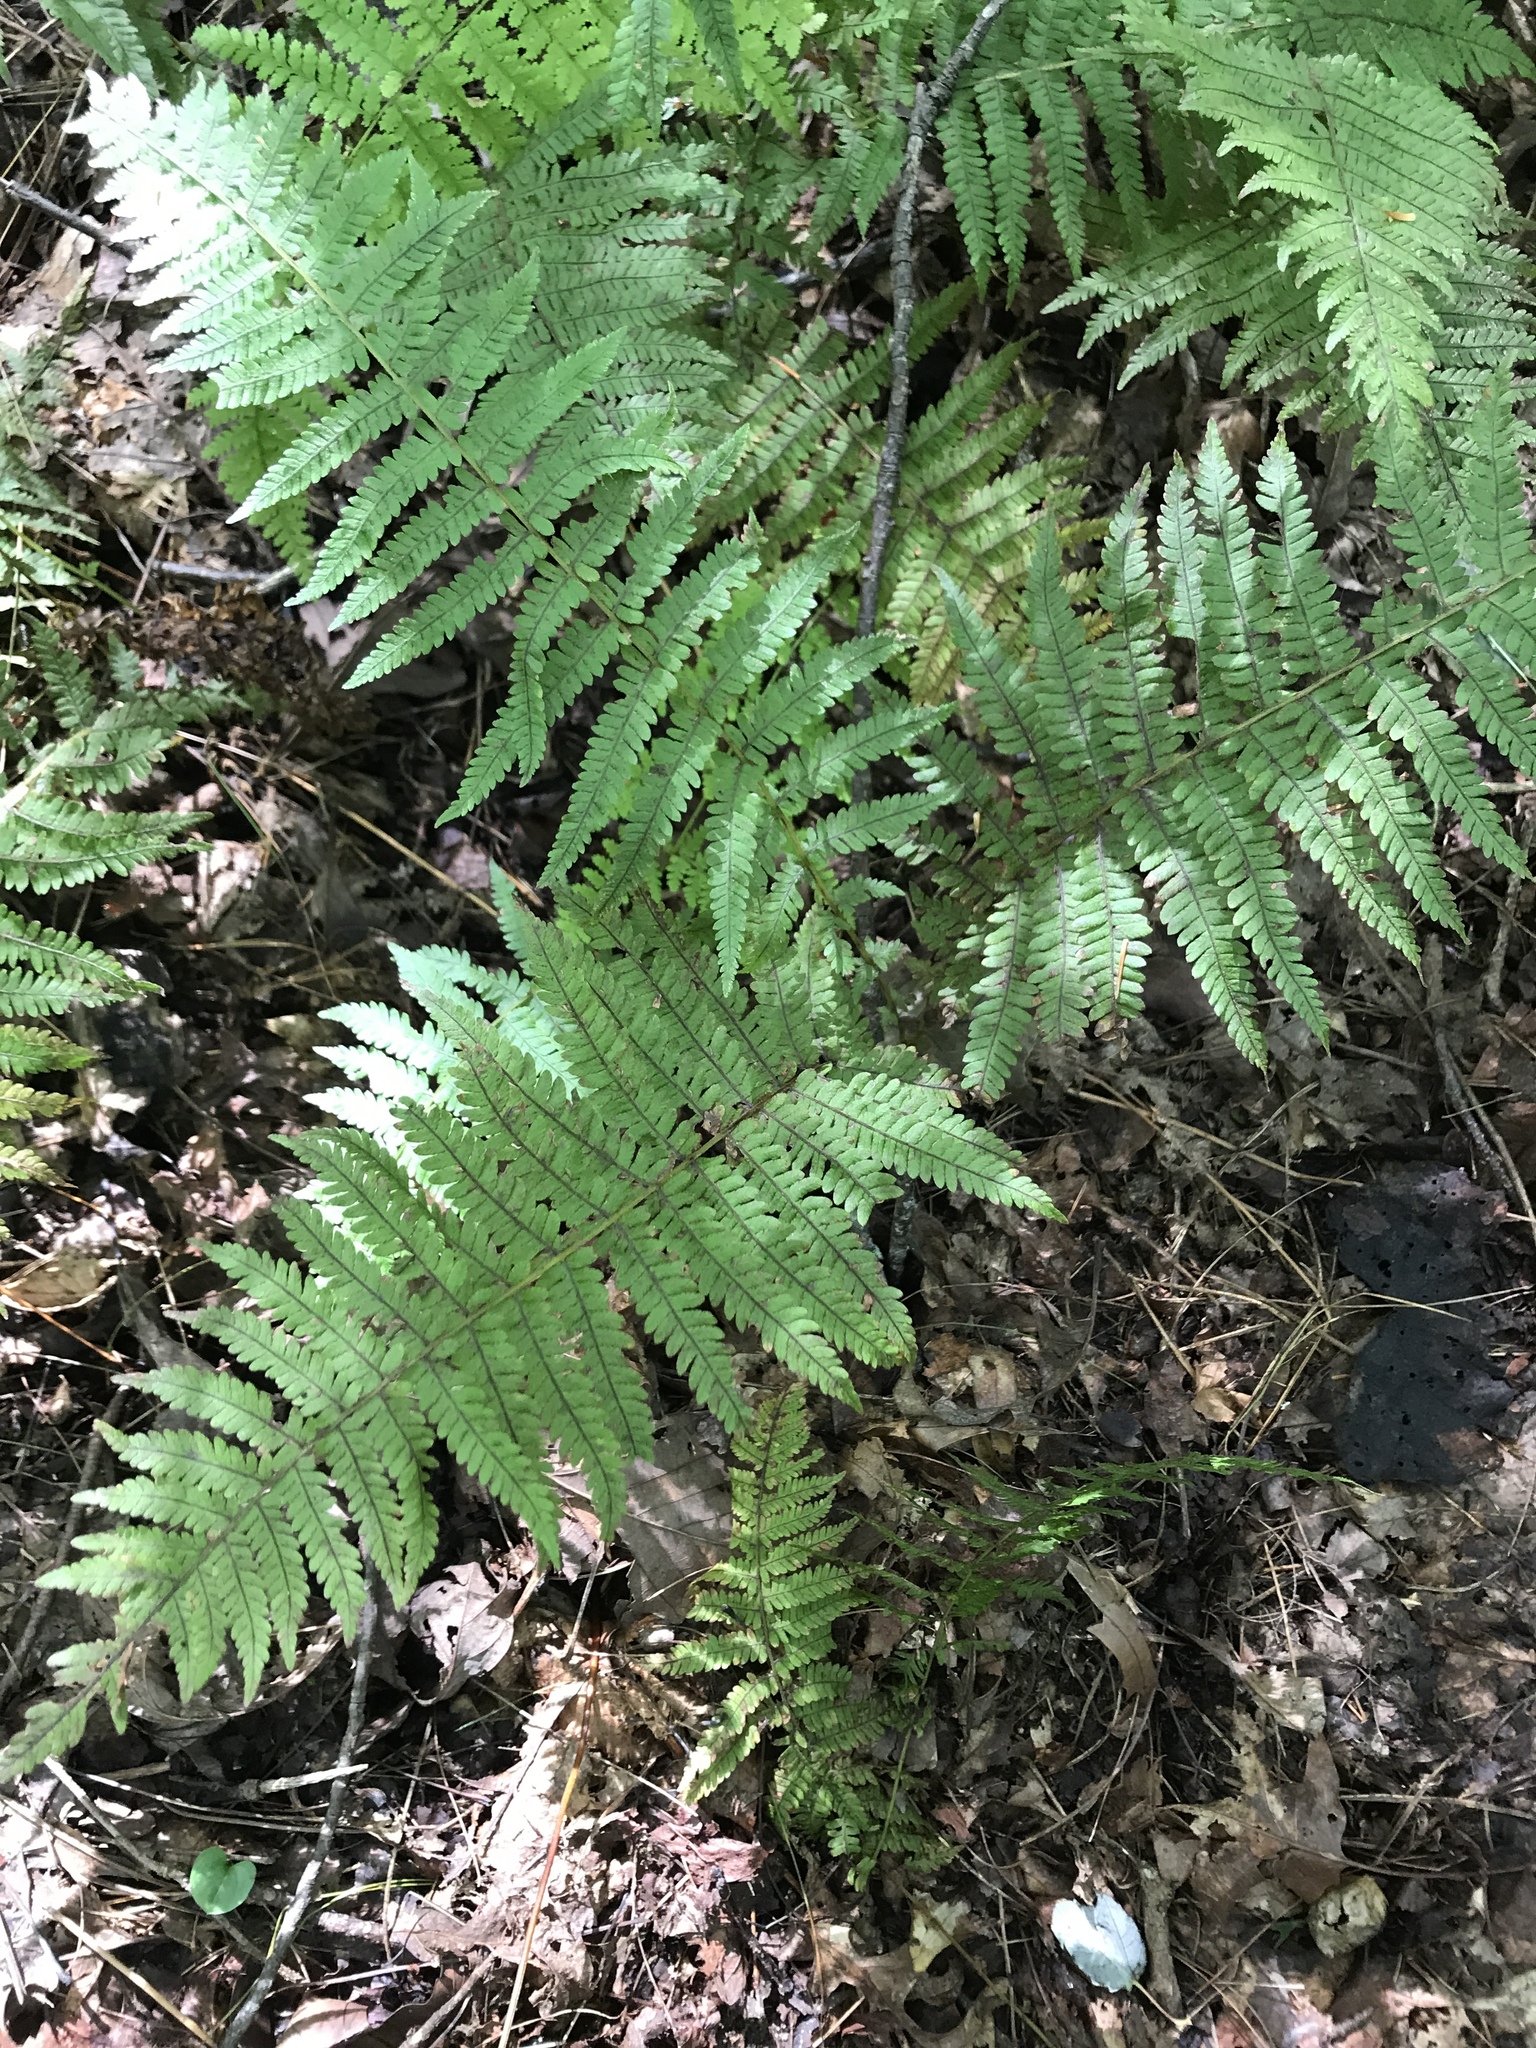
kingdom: Plantae
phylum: Tracheophyta
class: Polypodiopsida
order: Polypodiales
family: Thelypteridaceae
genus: Amauropelta
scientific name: Amauropelta noveboracensis
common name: New york fern
